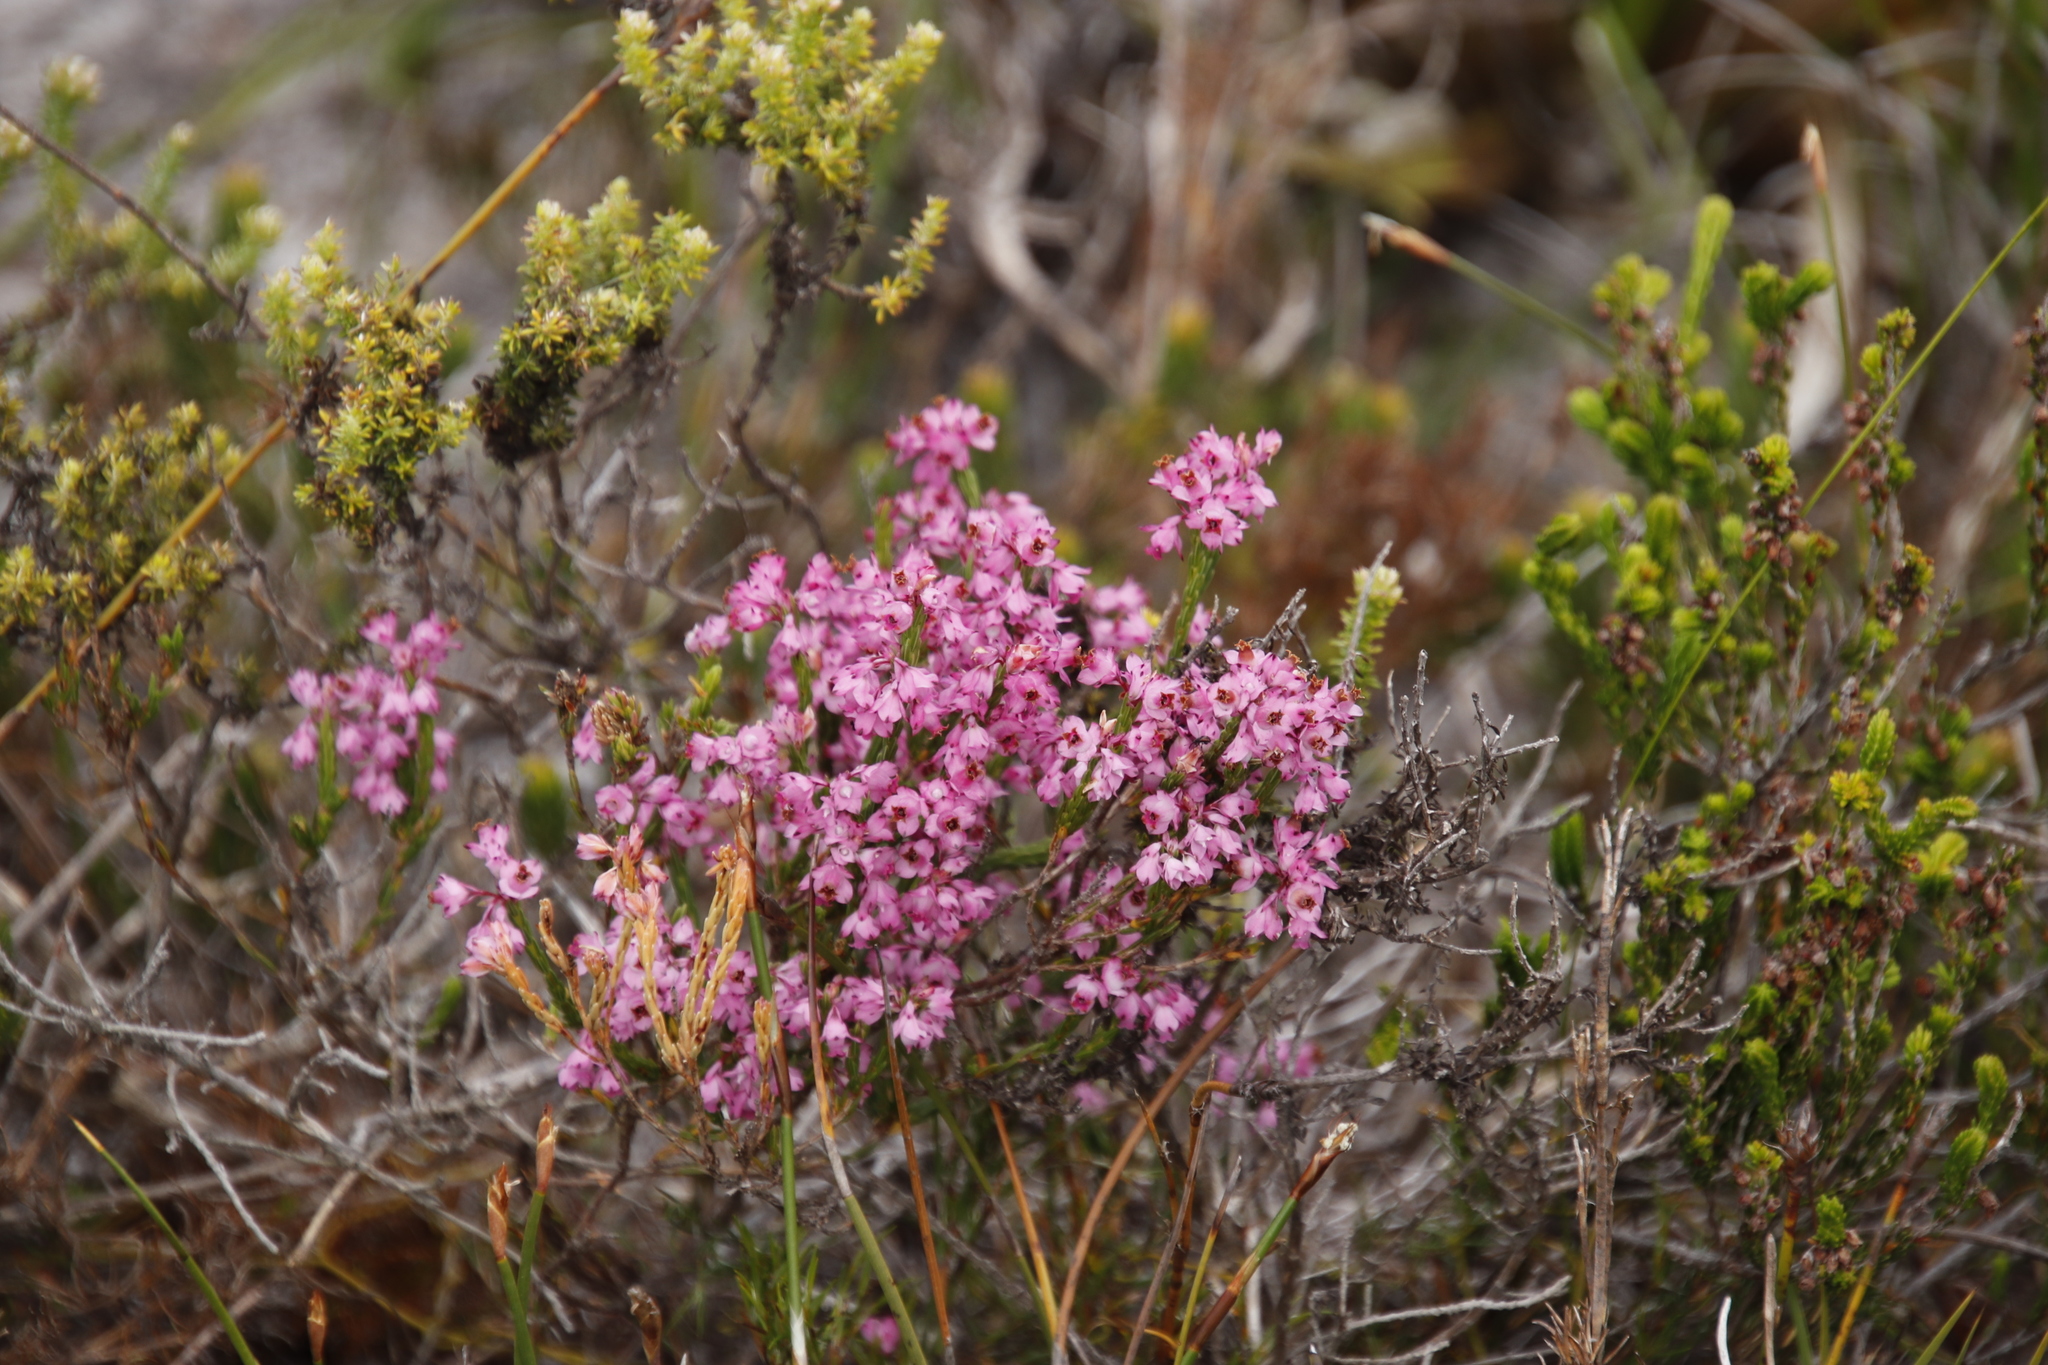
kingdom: Plantae
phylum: Tracheophyta
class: Magnoliopsida
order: Ericales
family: Ericaceae
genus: Erica
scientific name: Erica corifolia
